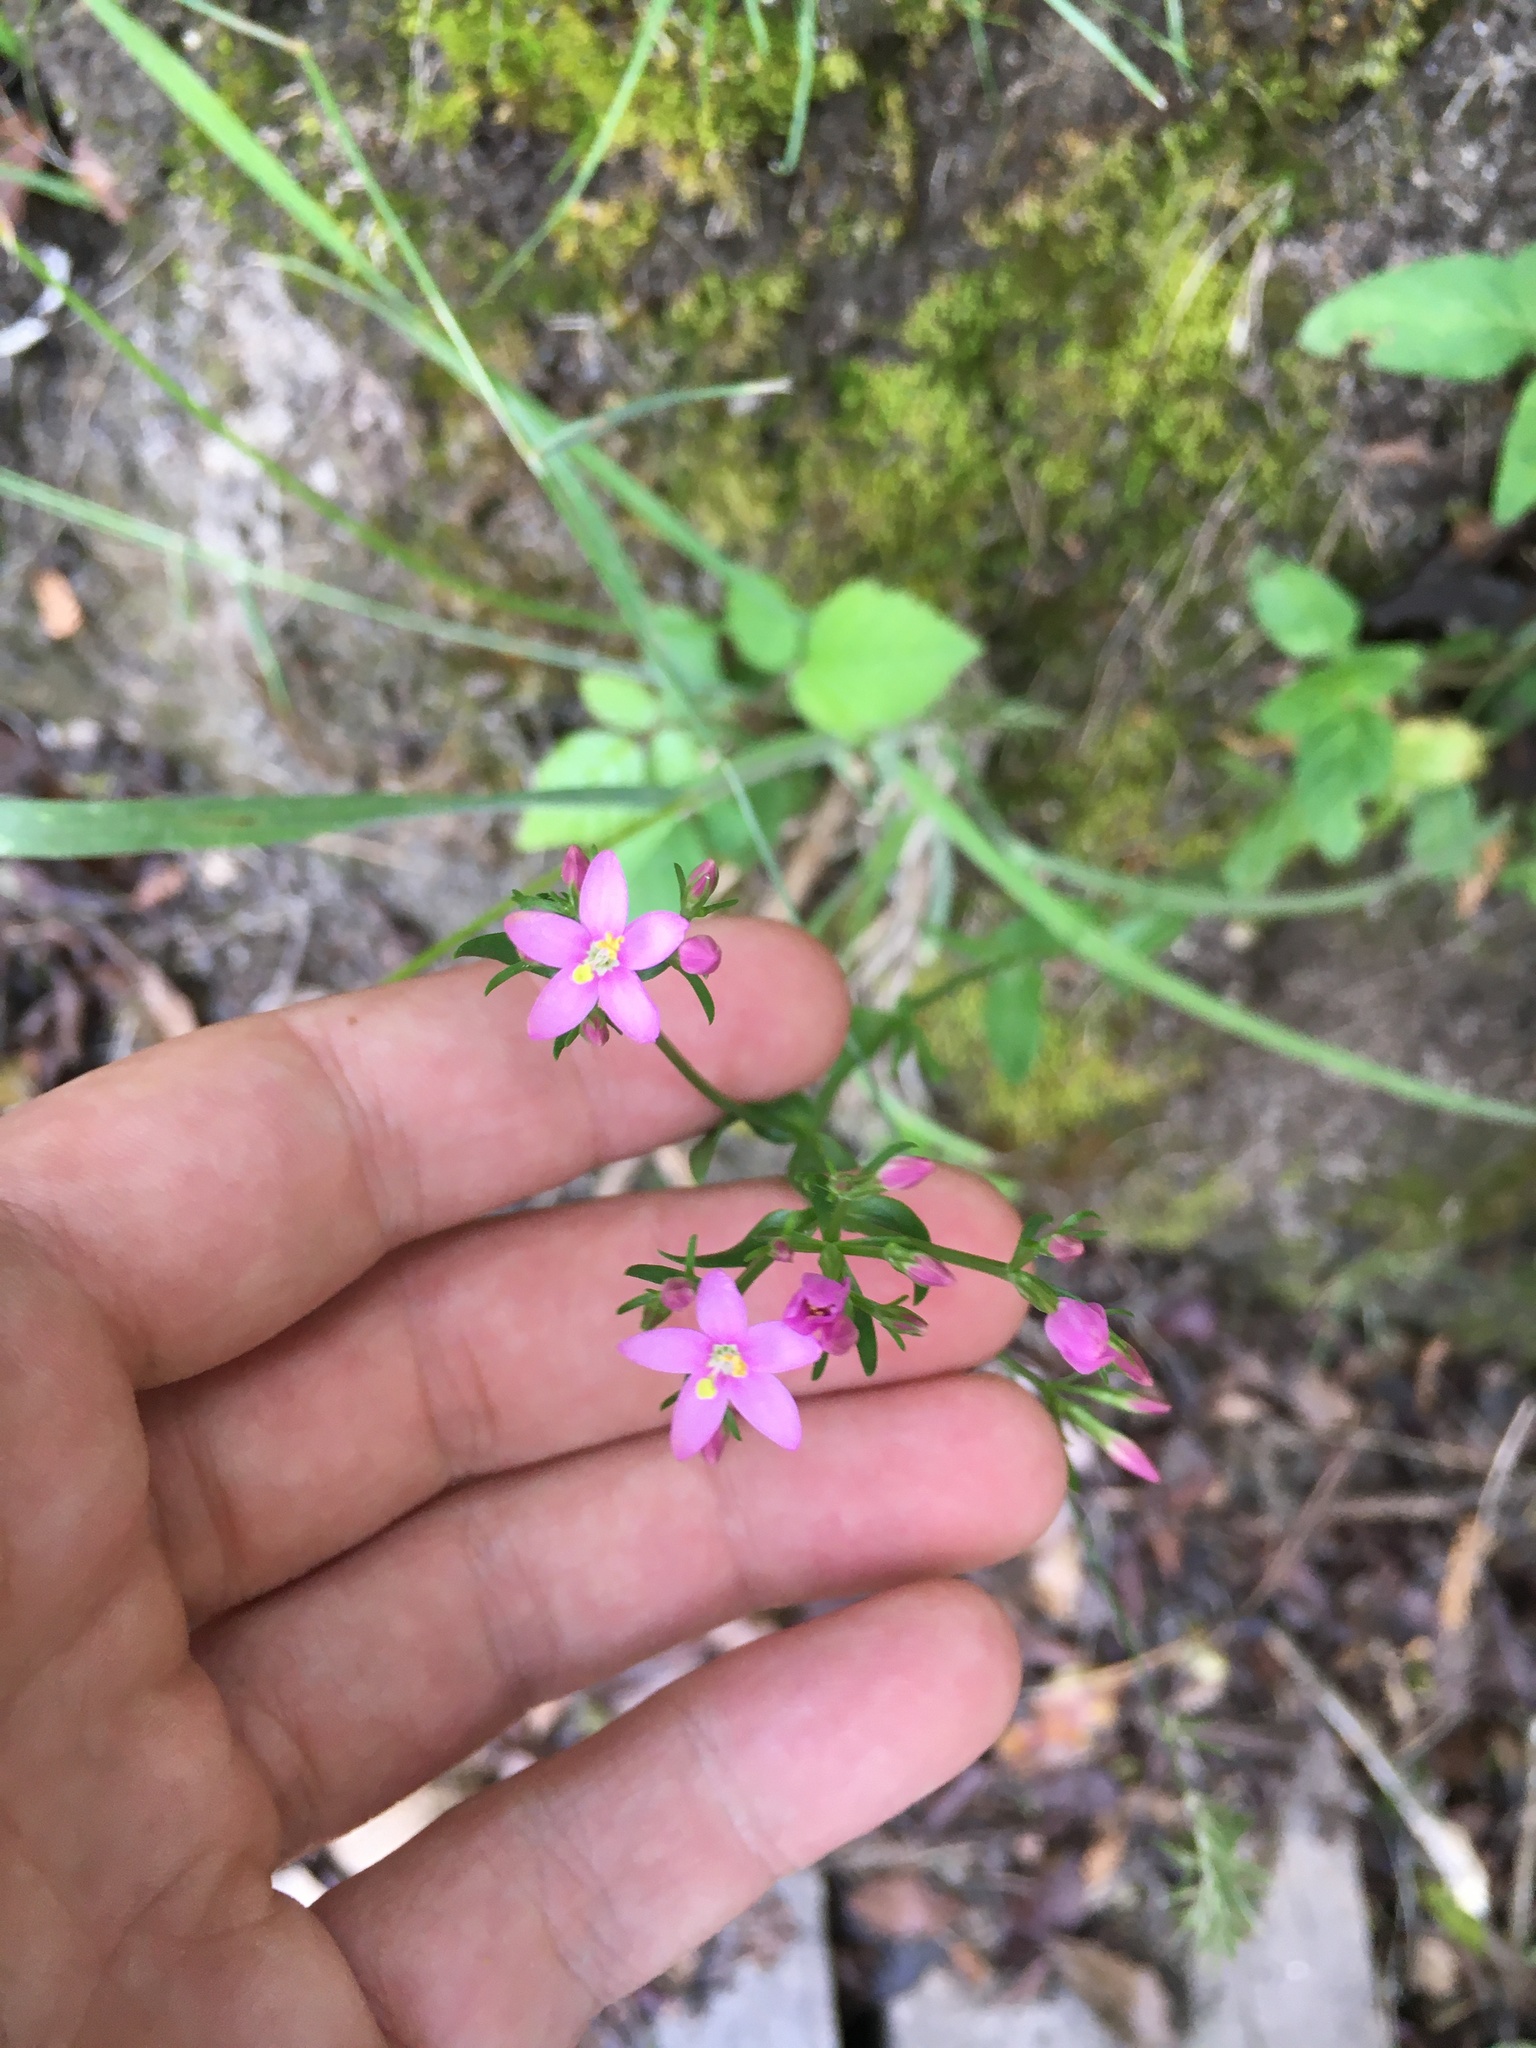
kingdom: Plantae
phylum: Tracheophyta
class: Magnoliopsida
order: Gentianales
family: Gentianaceae
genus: Centaurium
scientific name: Centaurium erythraea
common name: Common centaury
